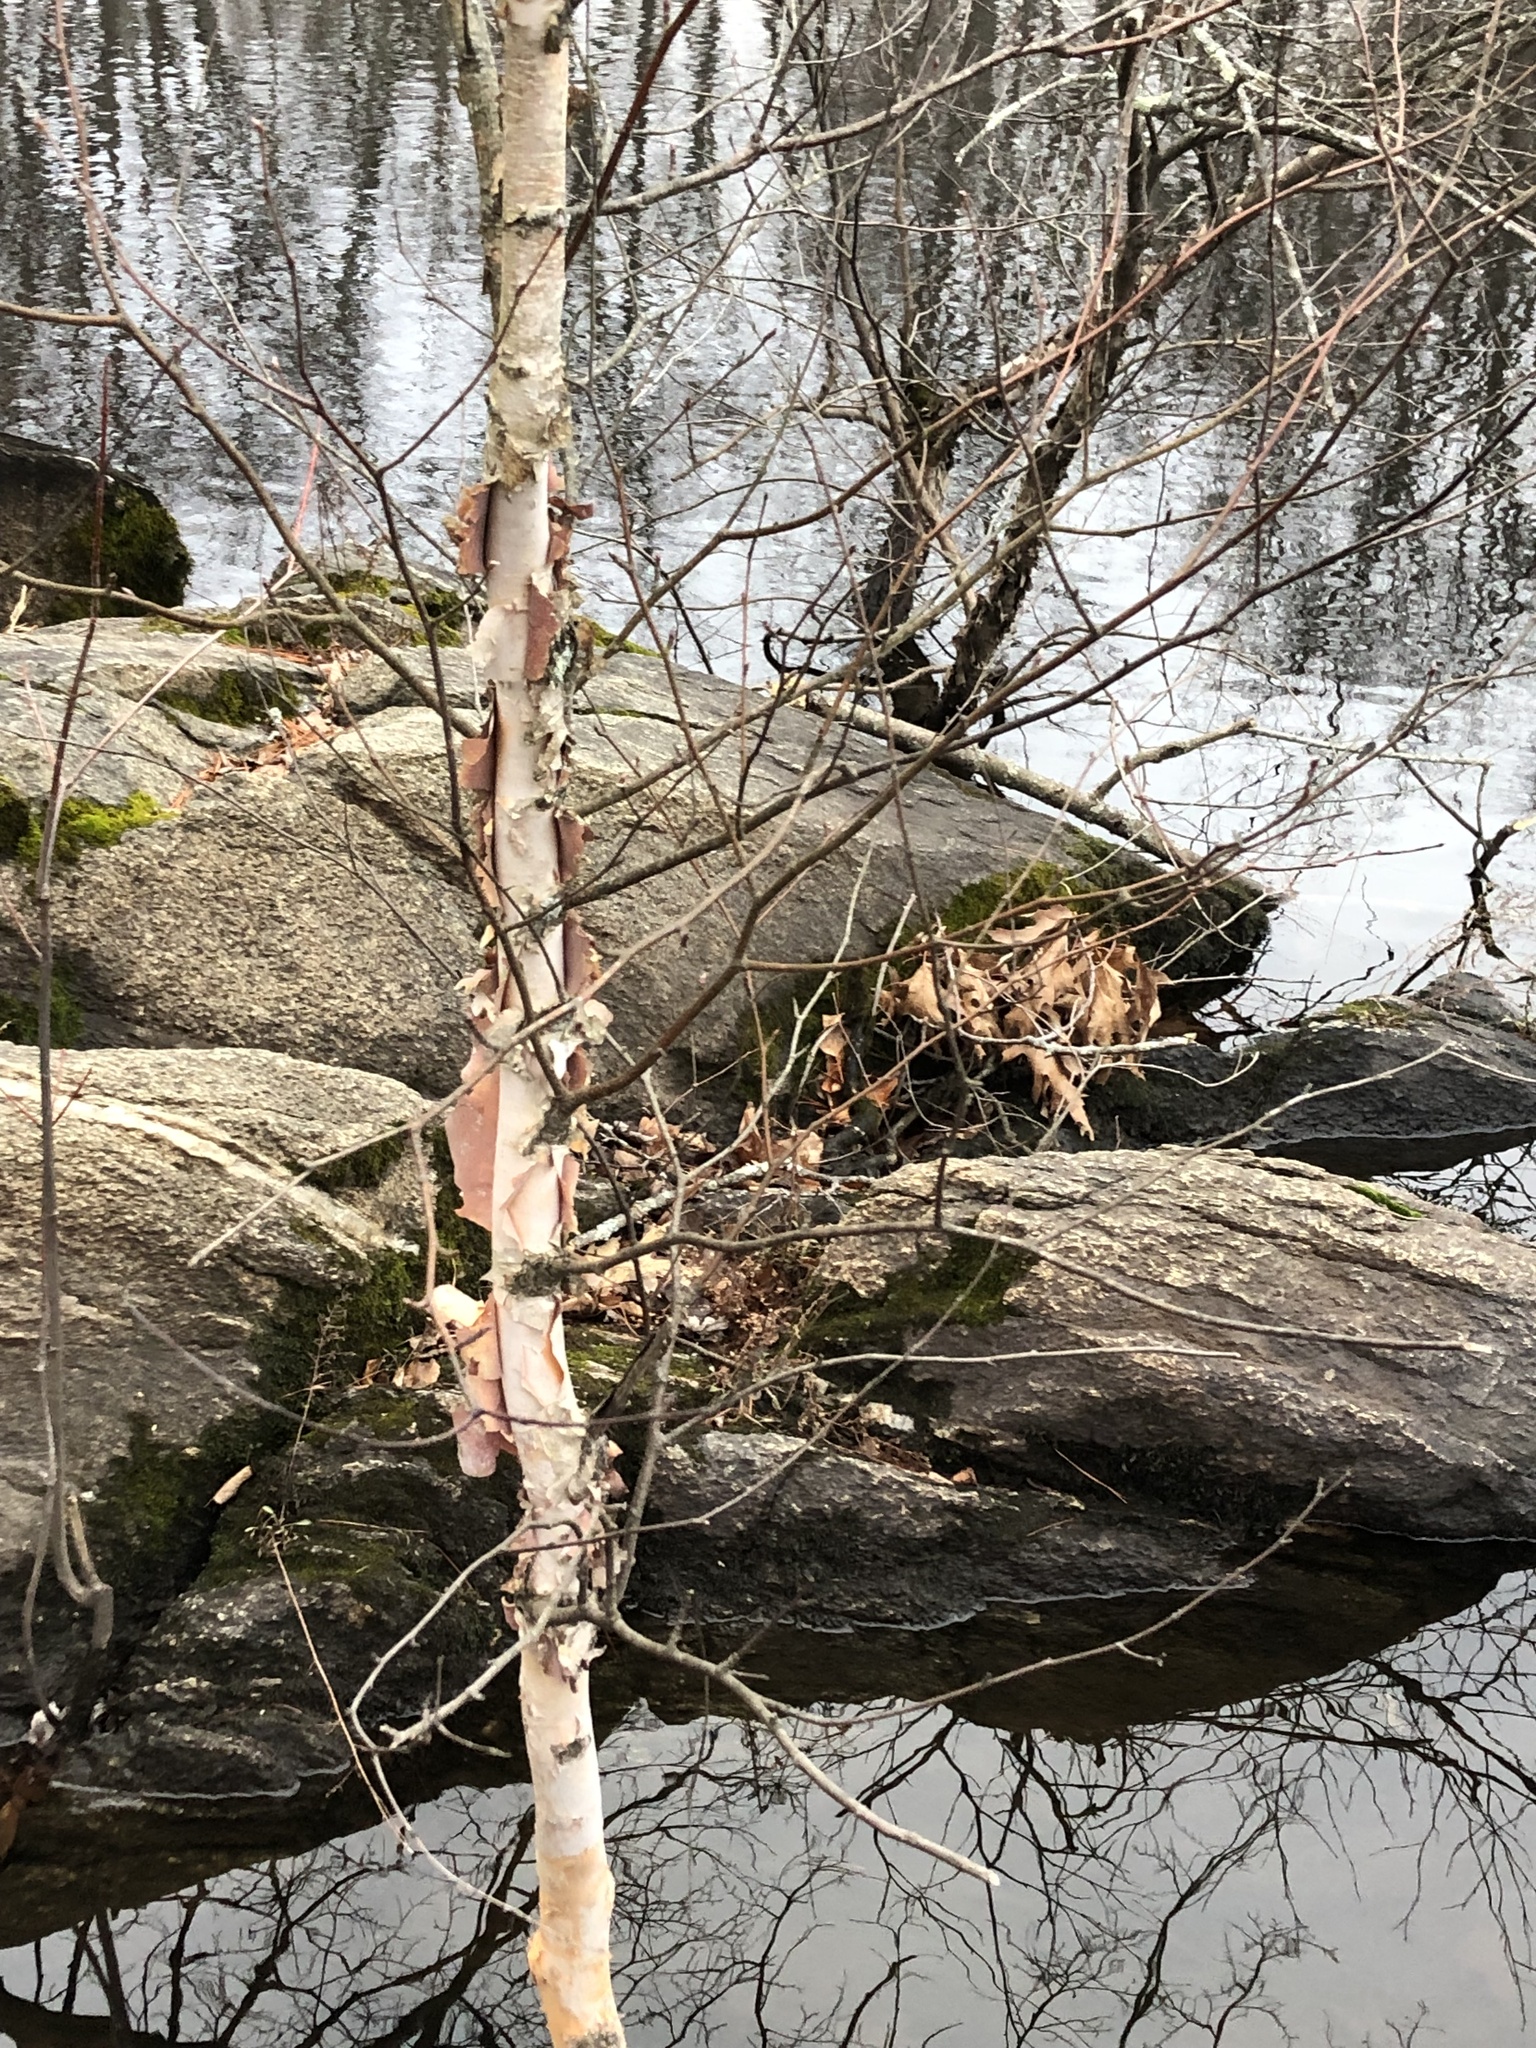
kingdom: Plantae
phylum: Tracheophyta
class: Magnoliopsida
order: Fagales
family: Betulaceae
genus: Betula
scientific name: Betula nigra
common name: Black birch
